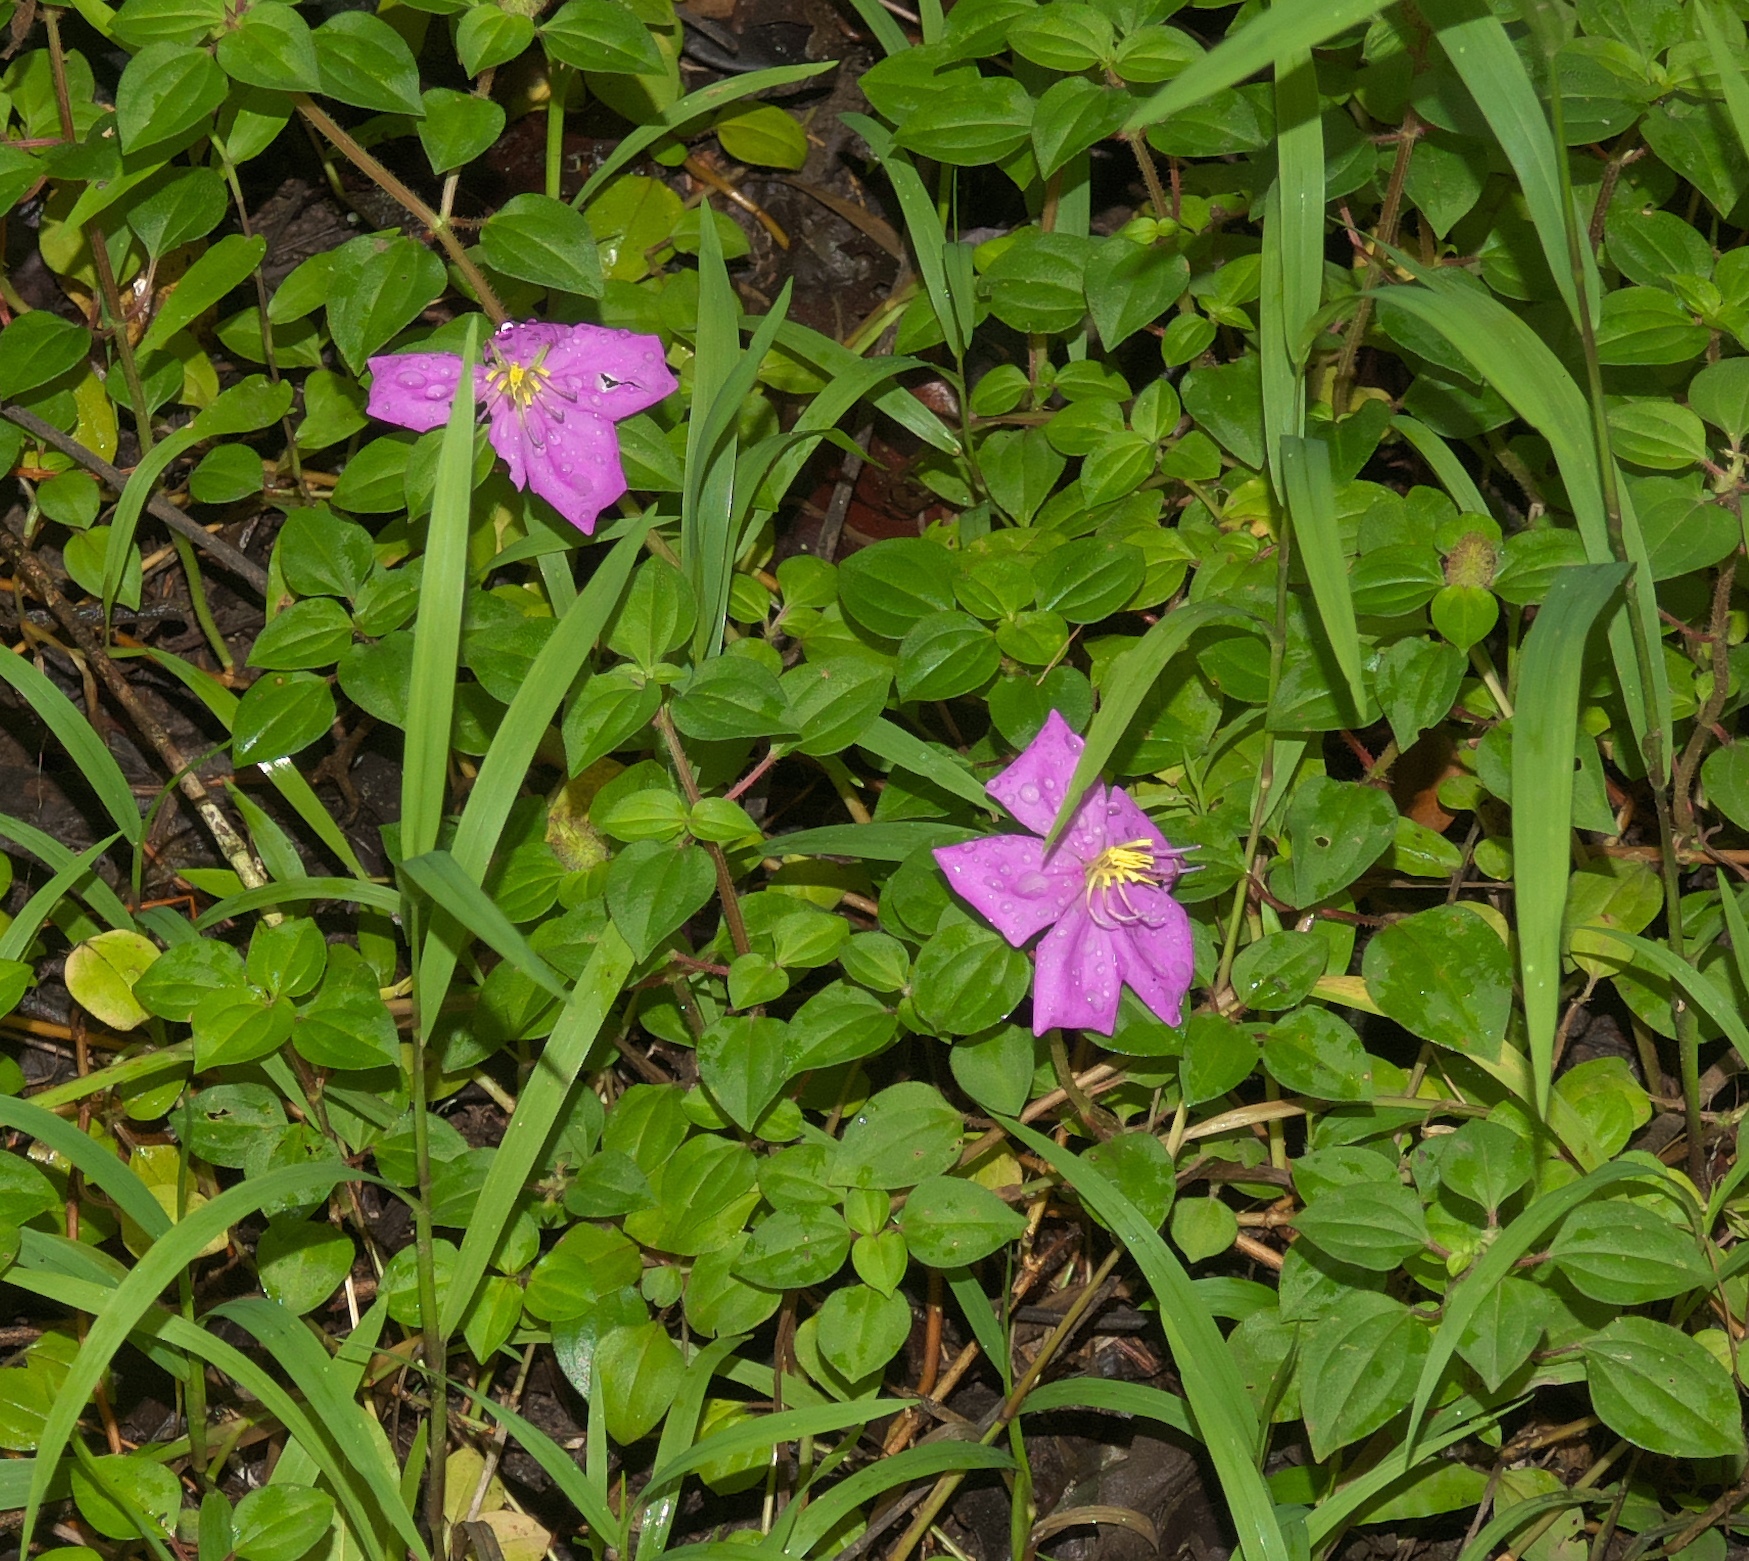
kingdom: Plantae
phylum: Tracheophyta
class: Magnoliopsida
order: Myrtales
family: Melastomataceae
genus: Heterotis
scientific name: Heterotis rotundifolia
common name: Pinklady
